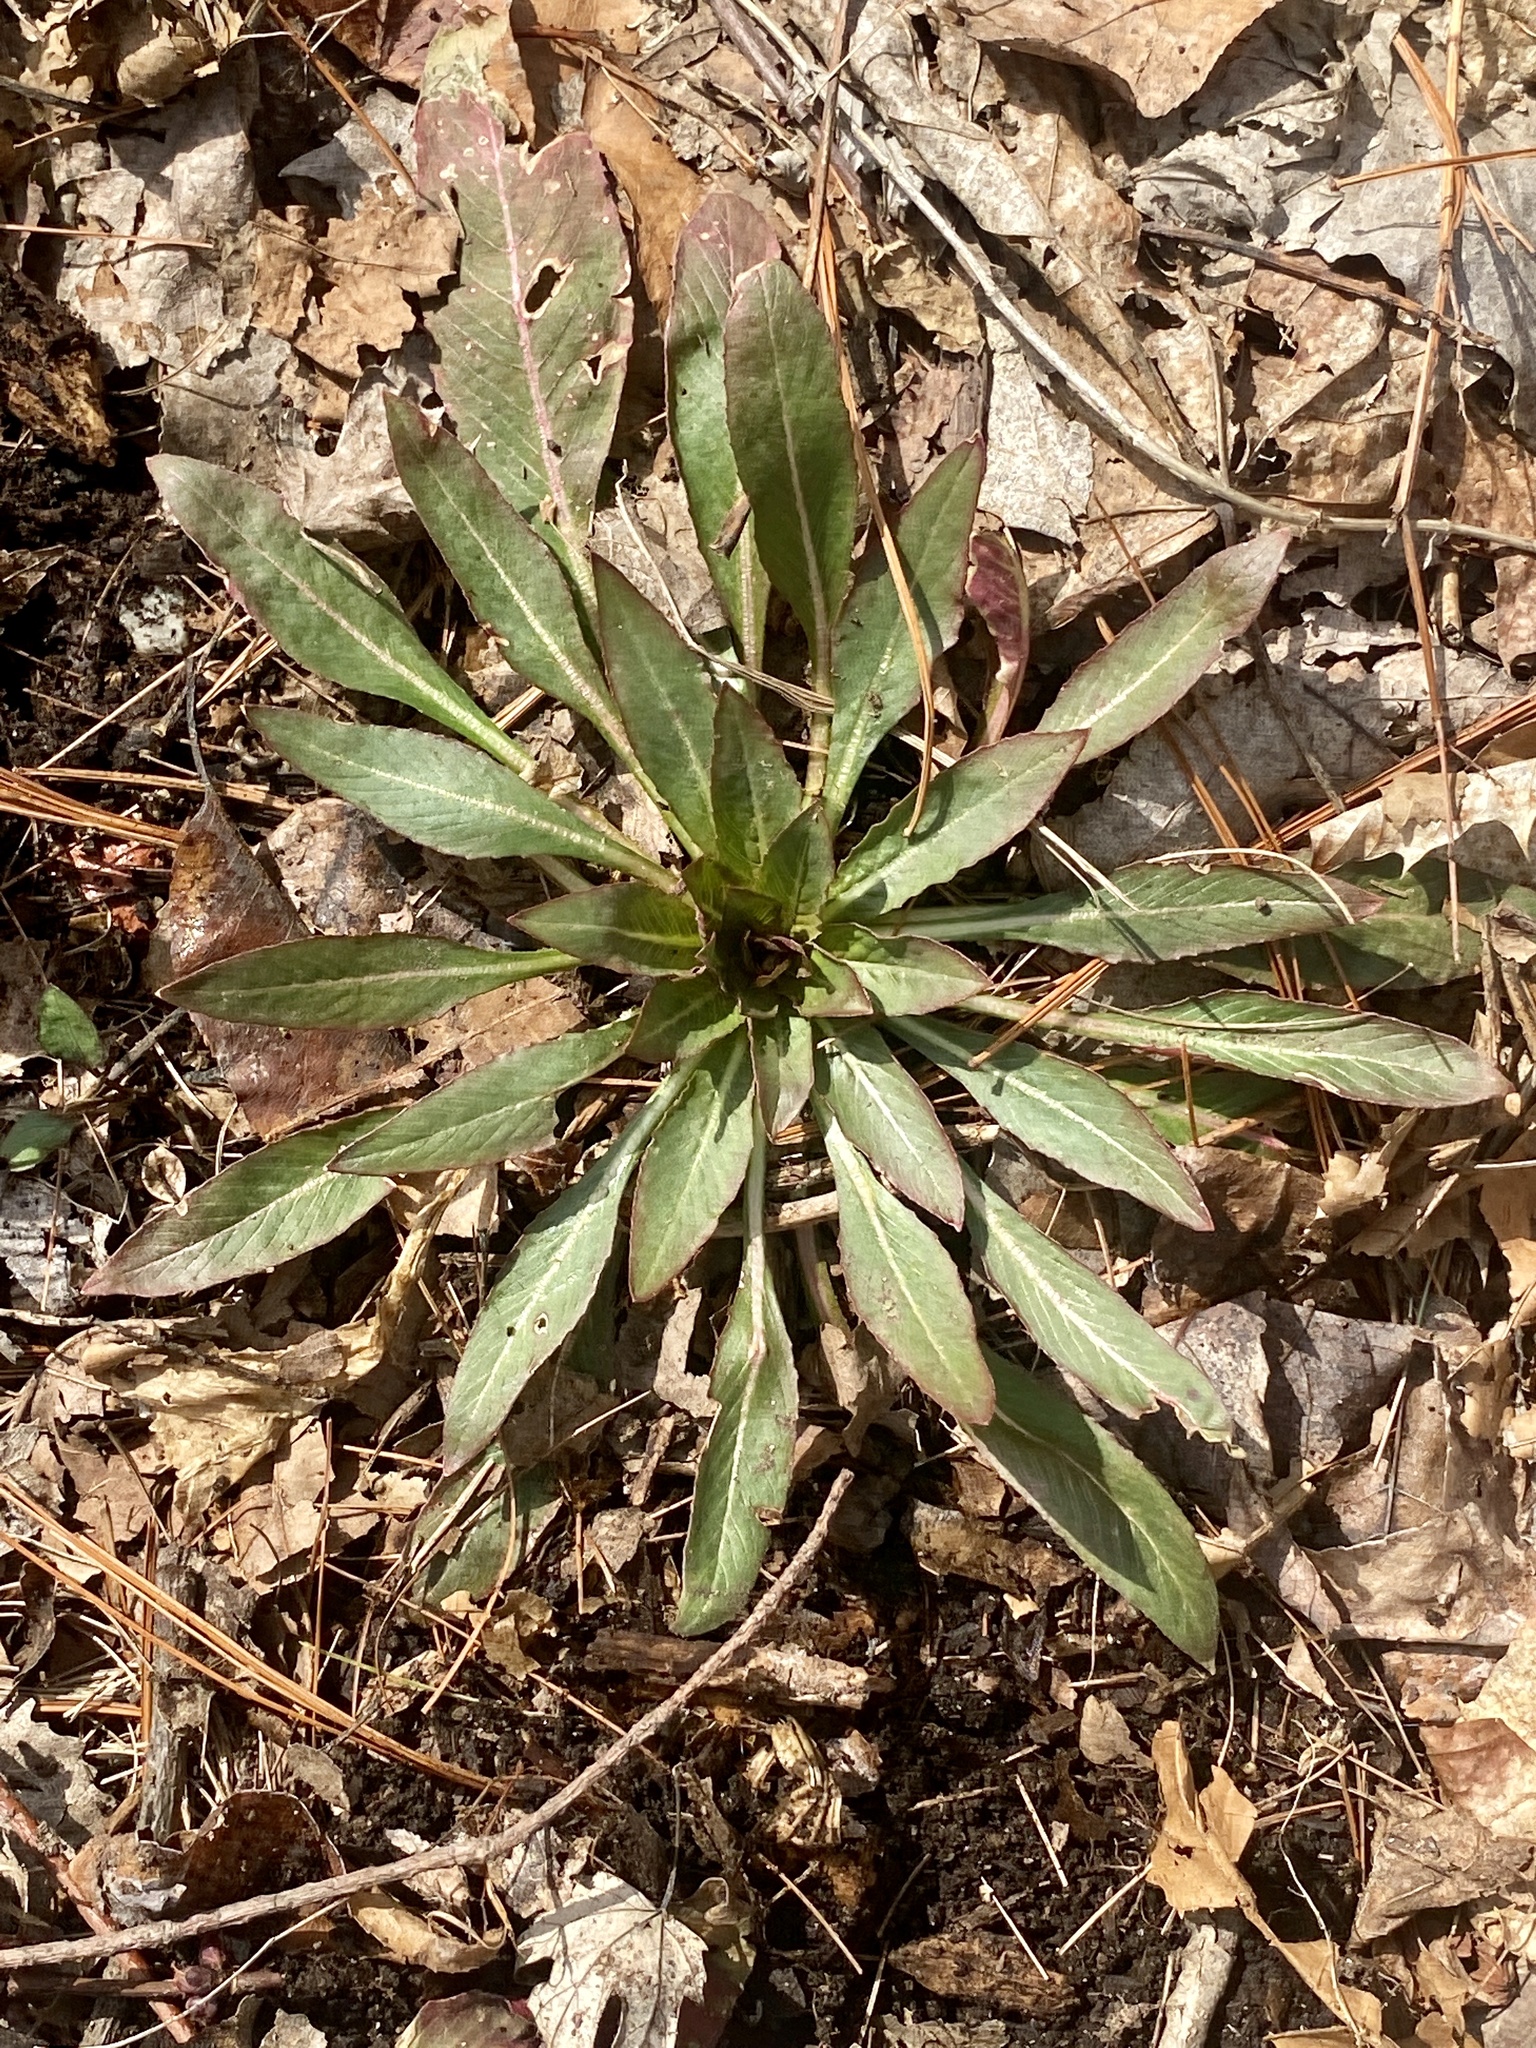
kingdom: Plantae
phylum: Tracheophyta
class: Magnoliopsida
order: Myrtales
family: Onagraceae
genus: Oenothera
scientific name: Oenothera biennis
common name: Common evening-primrose
